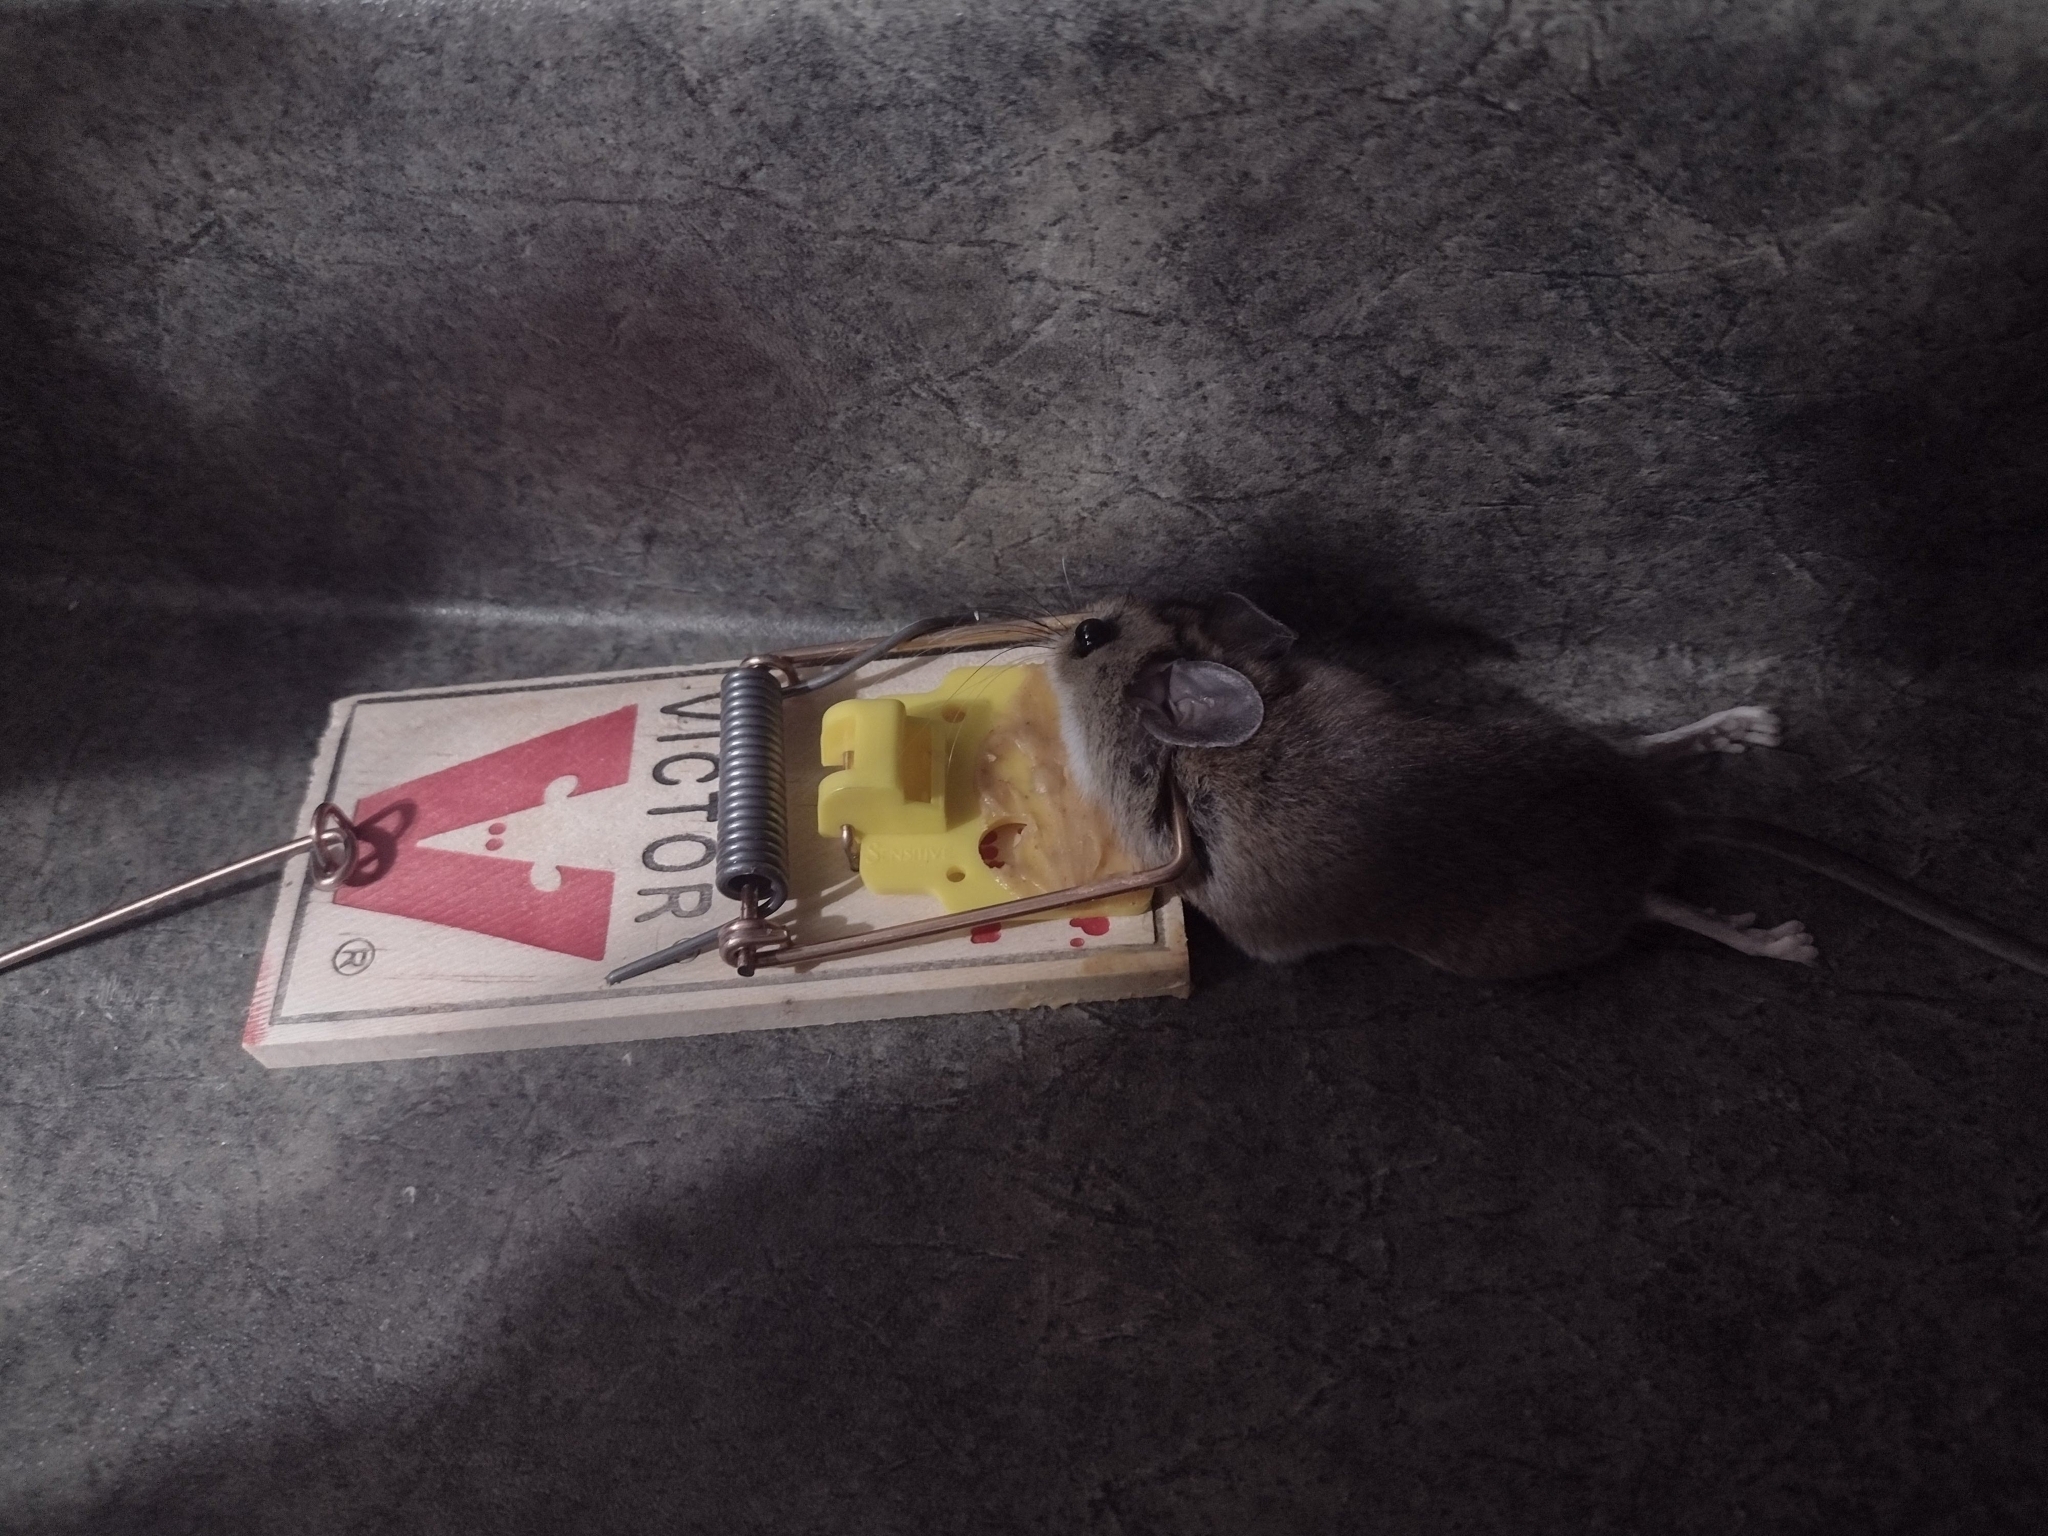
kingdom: Animalia
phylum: Chordata
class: Mammalia
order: Rodentia
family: Muridae
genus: Mus
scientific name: Mus musculus
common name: House mouse
